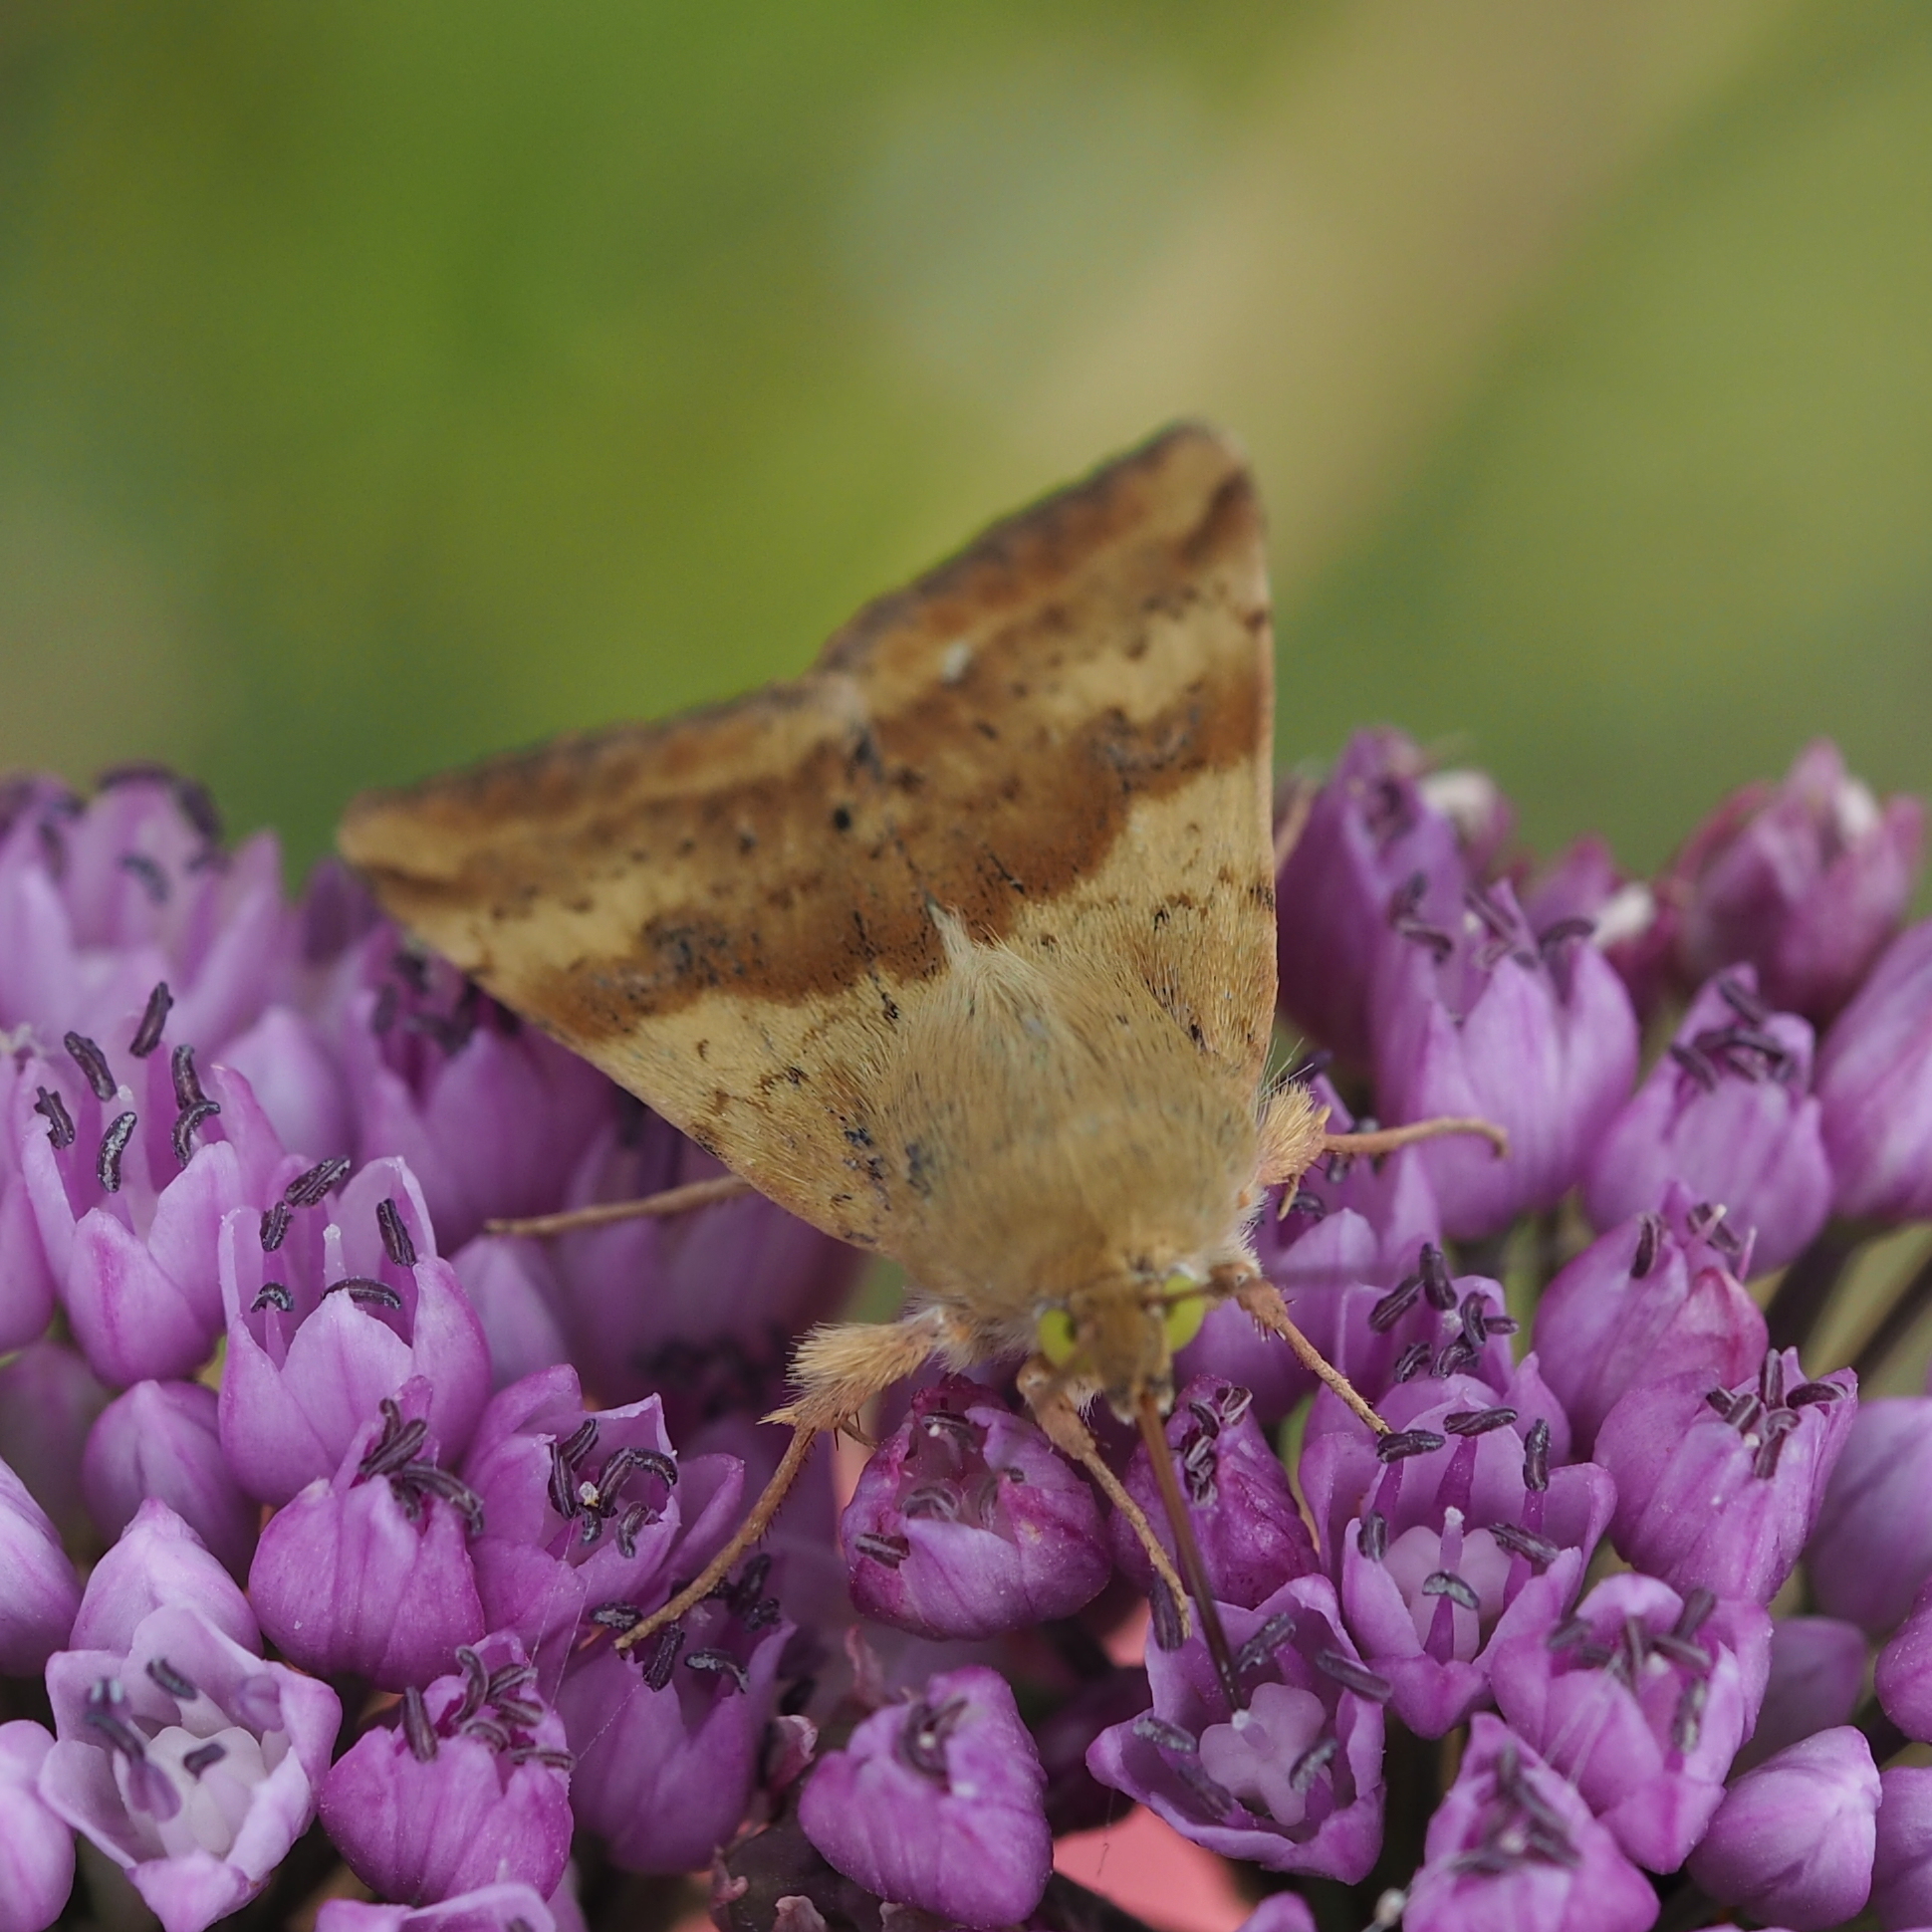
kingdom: Animalia
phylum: Arthropoda
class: Insecta
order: Lepidoptera
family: Noctuidae
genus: Heliothis
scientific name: Heliothis viriplaca
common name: Marbled clover
